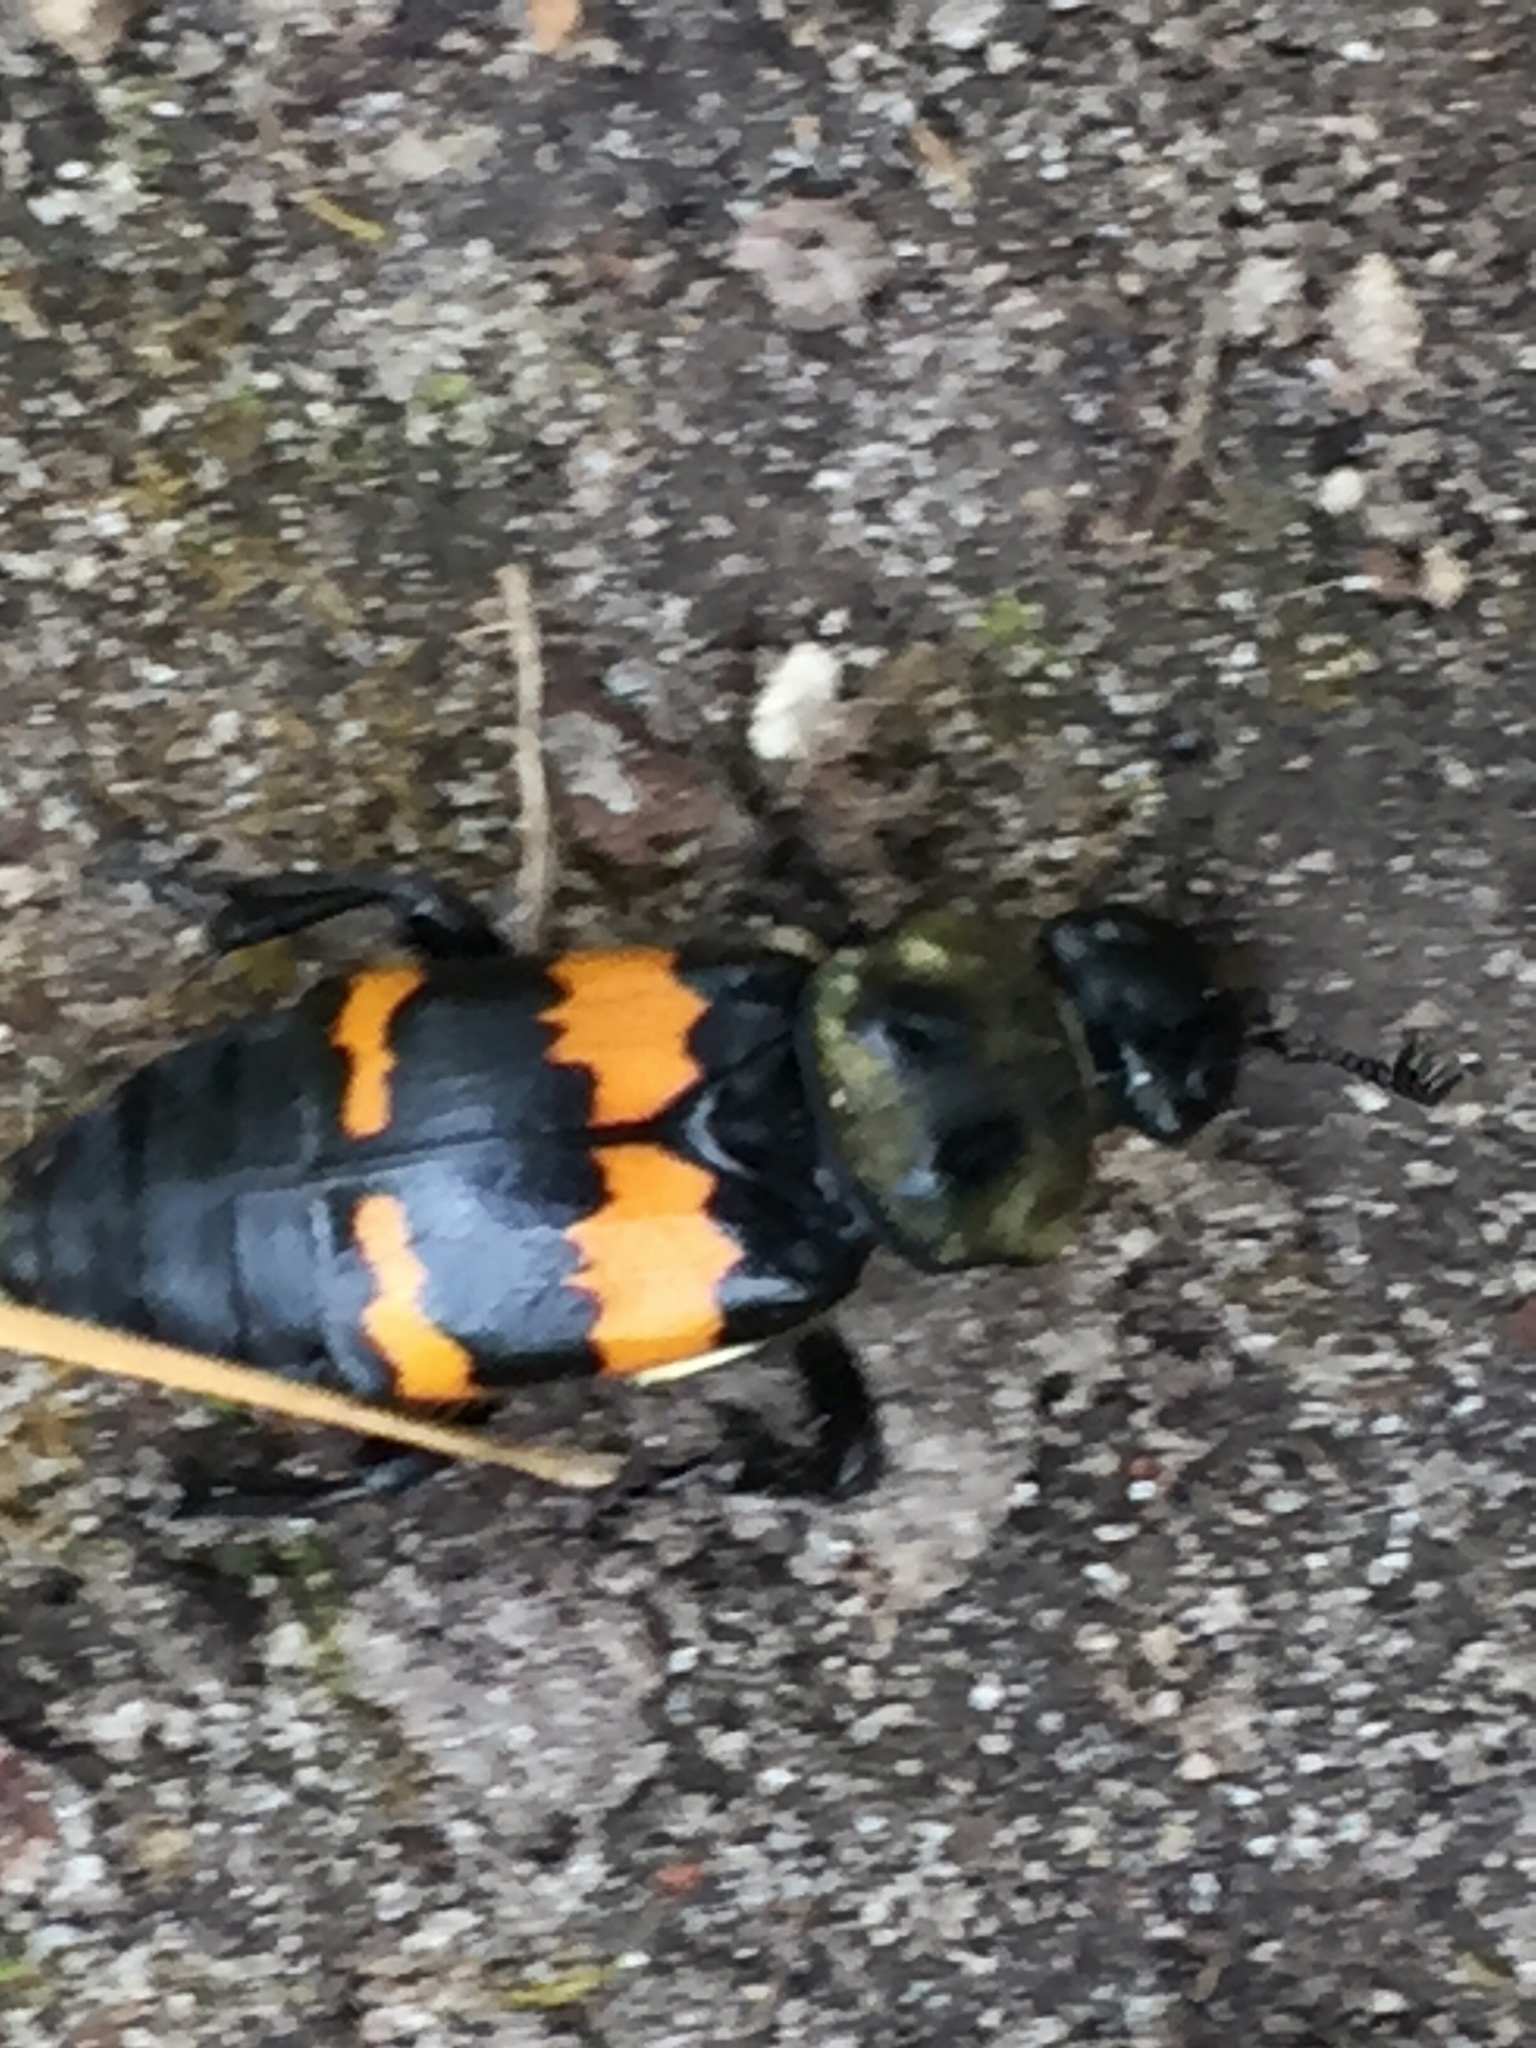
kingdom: Animalia
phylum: Arthropoda
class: Insecta
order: Coleoptera
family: Staphylinidae
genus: Nicrophorus
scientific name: Nicrophorus tomentosus
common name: Tomentose burying beetle
